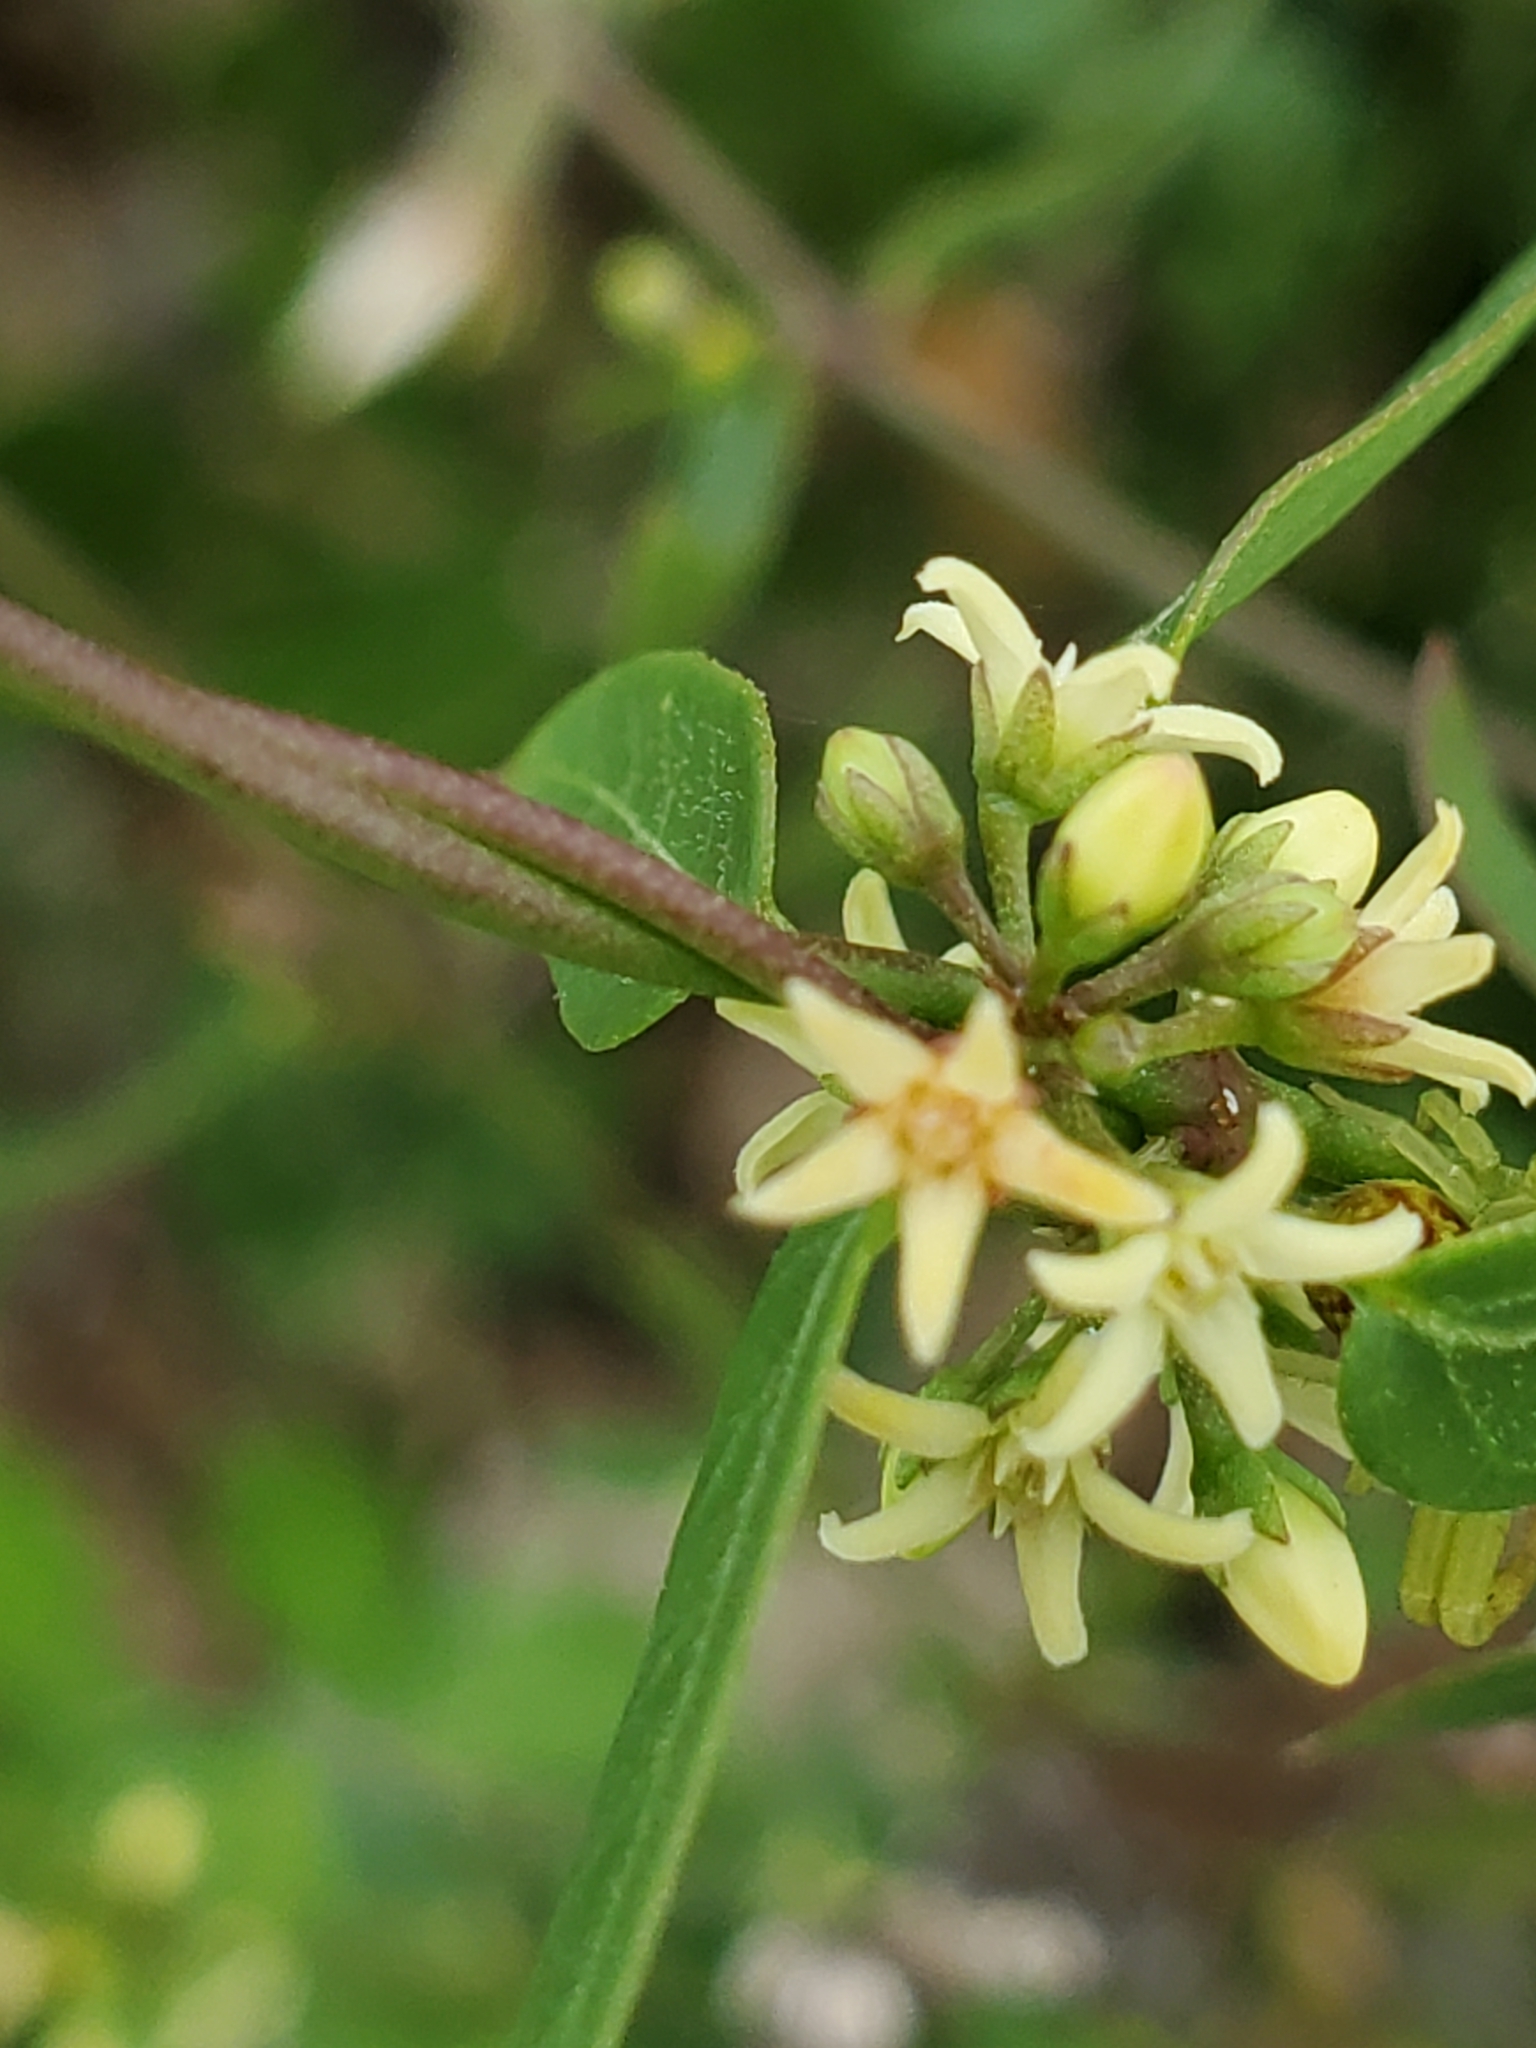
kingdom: Plantae
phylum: Tracheophyta
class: Magnoliopsida
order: Gentianales
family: Apocynaceae
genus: Metastelma
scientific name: Metastelma palmeri
